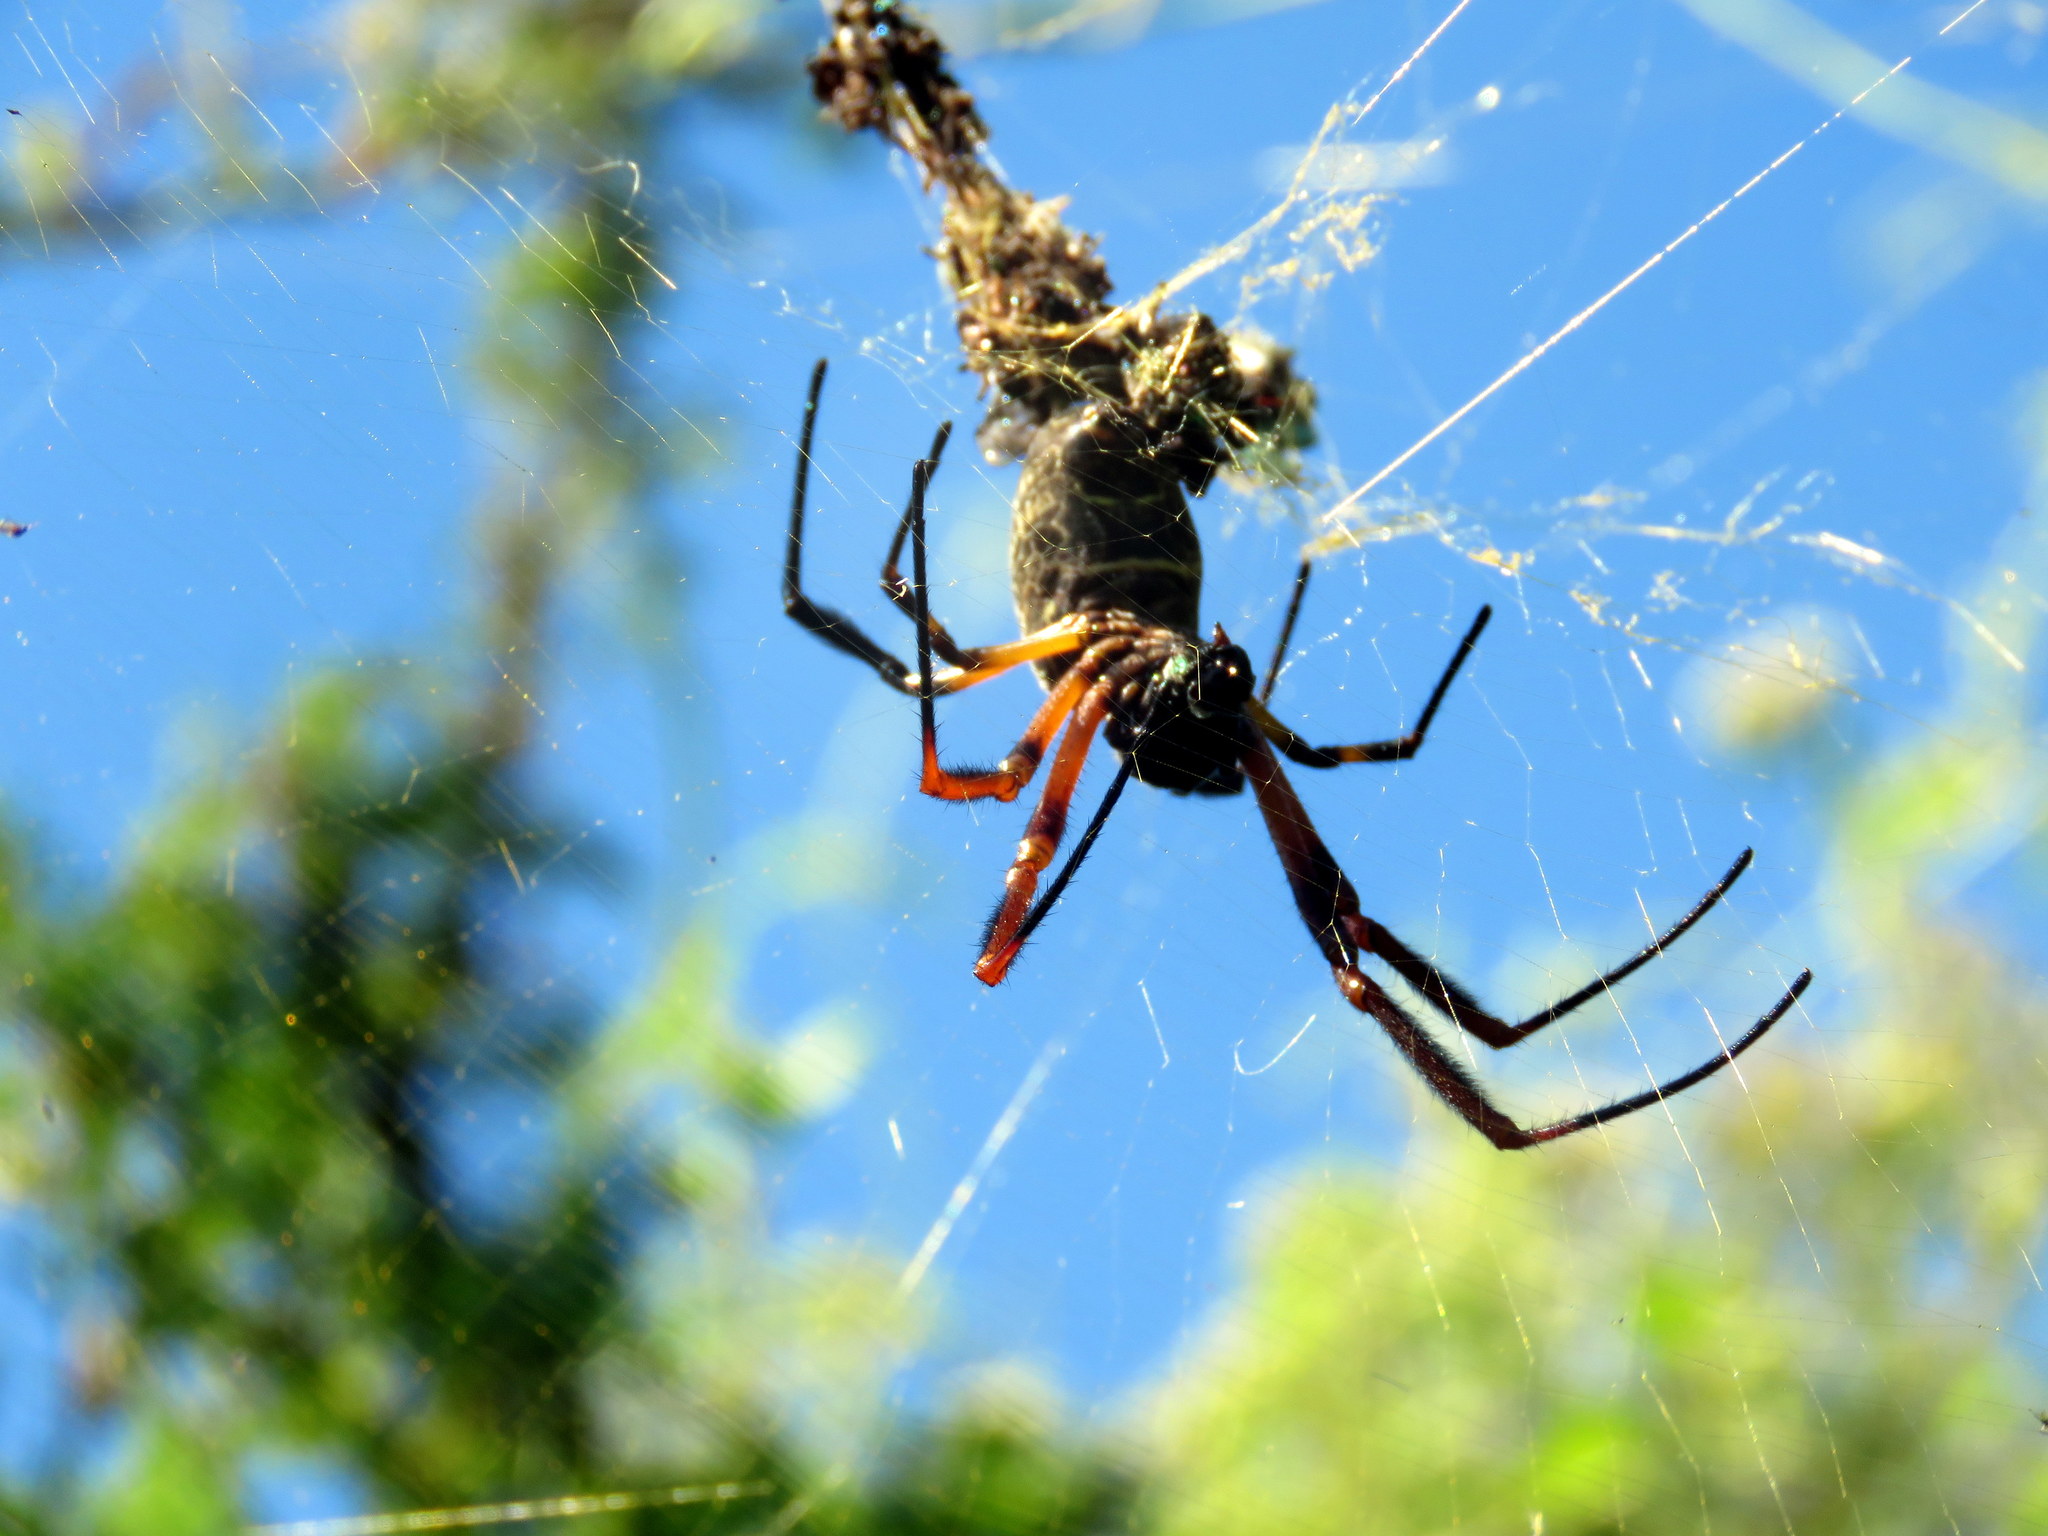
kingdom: Animalia
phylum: Arthropoda
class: Arachnida
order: Araneae
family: Araneidae
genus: Trichonephila
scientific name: Trichonephila sexpunctata
